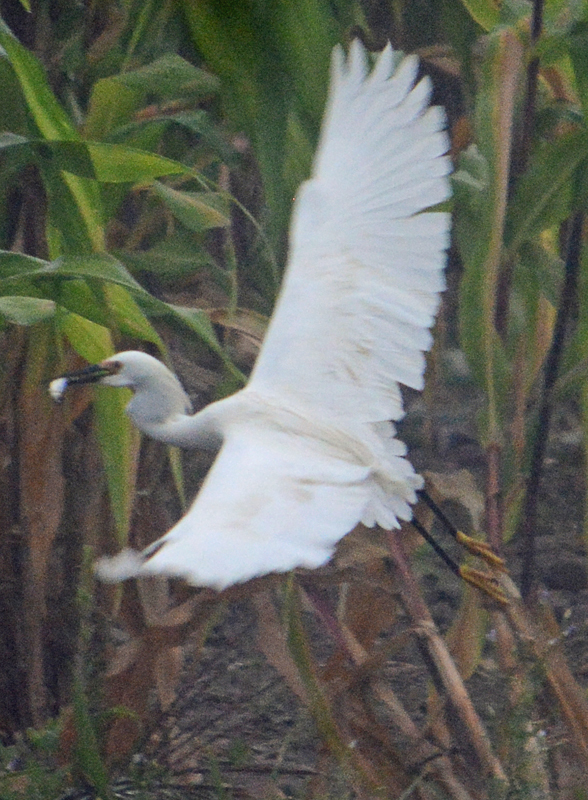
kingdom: Animalia
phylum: Chordata
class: Aves
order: Pelecaniformes
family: Ardeidae
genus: Egretta
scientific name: Egretta thula
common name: Snowy egret
